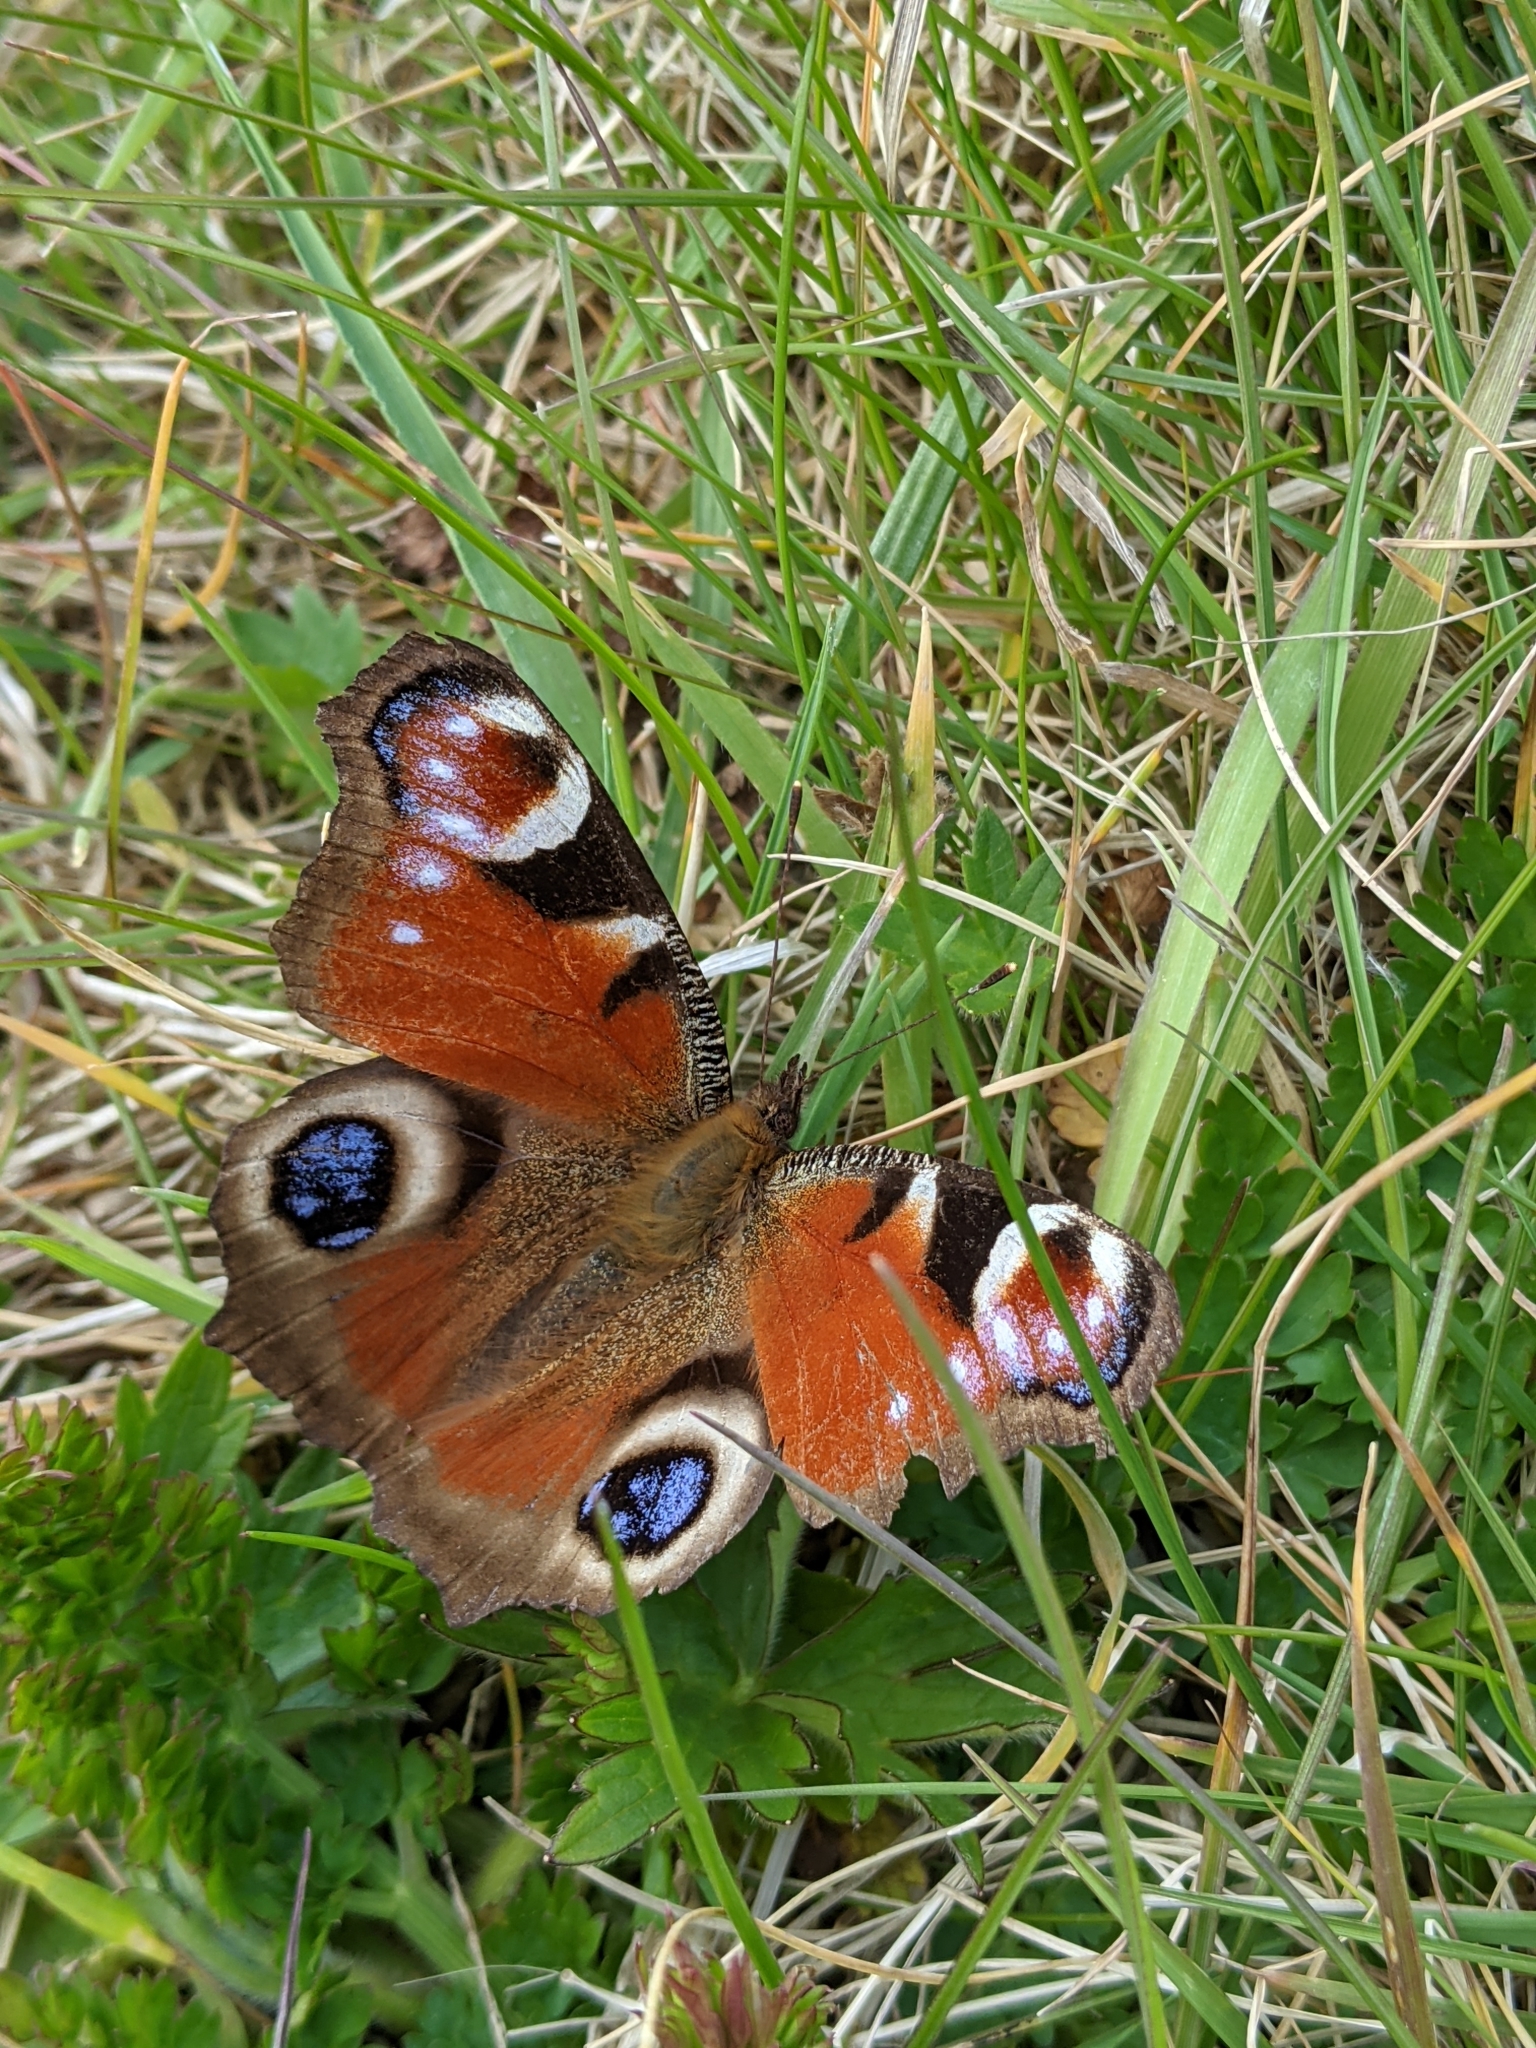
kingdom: Animalia
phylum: Arthropoda
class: Insecta
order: Lepidoptera
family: Nymphalidae
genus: Aglais
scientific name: Aglais io
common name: Peacock
